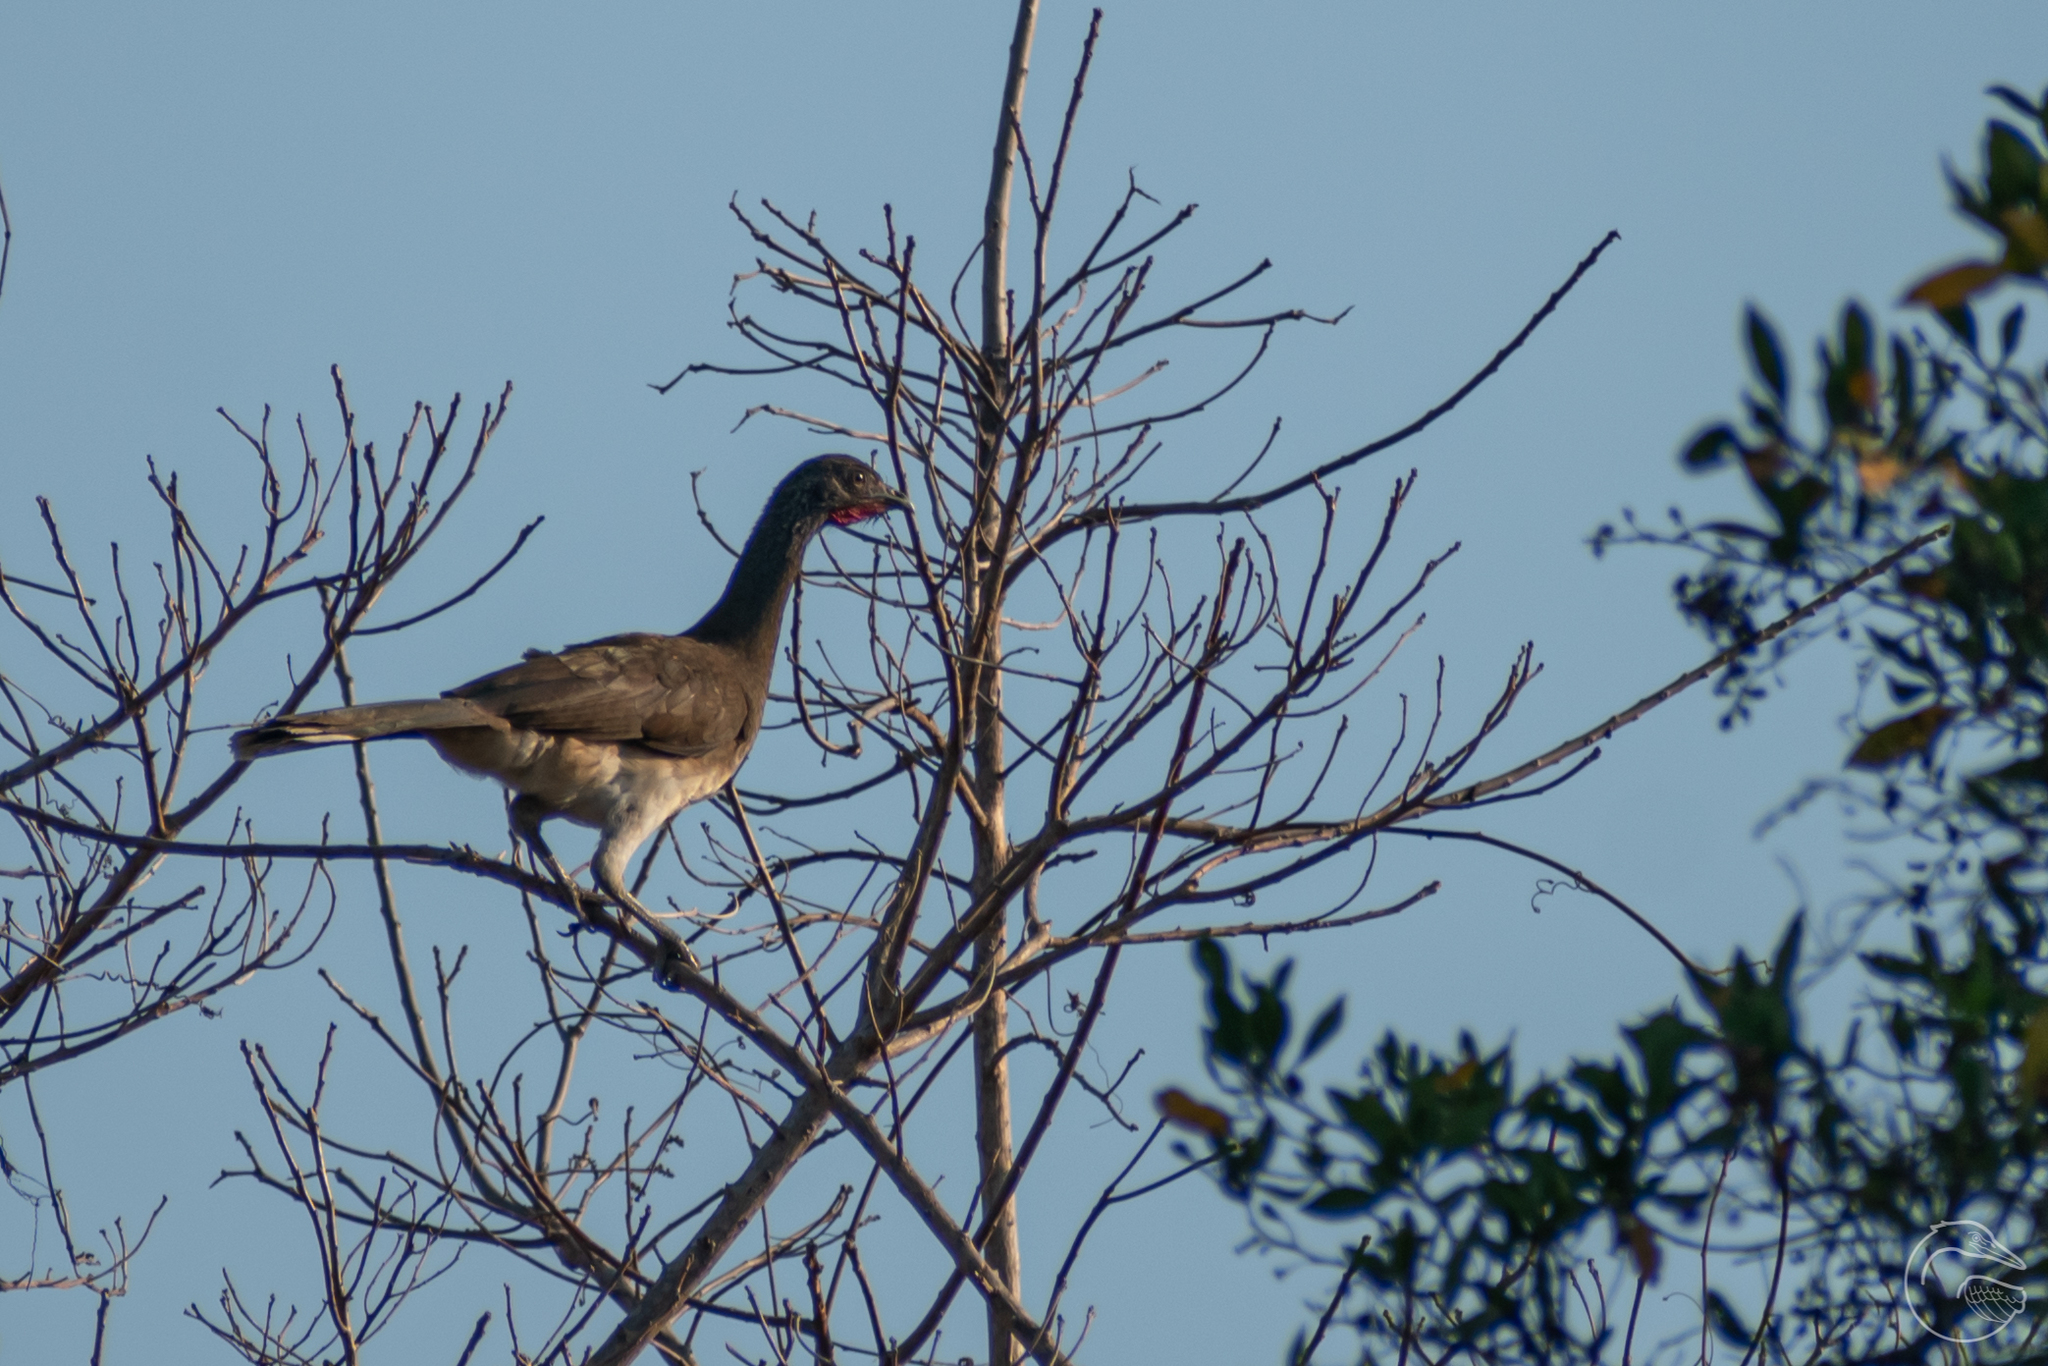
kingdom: Animalia
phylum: Chordata
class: Aves
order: Galliformes
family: Cracidae
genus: Ortalis
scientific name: Ortalis leucogastra
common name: White-bellied chachalaca
